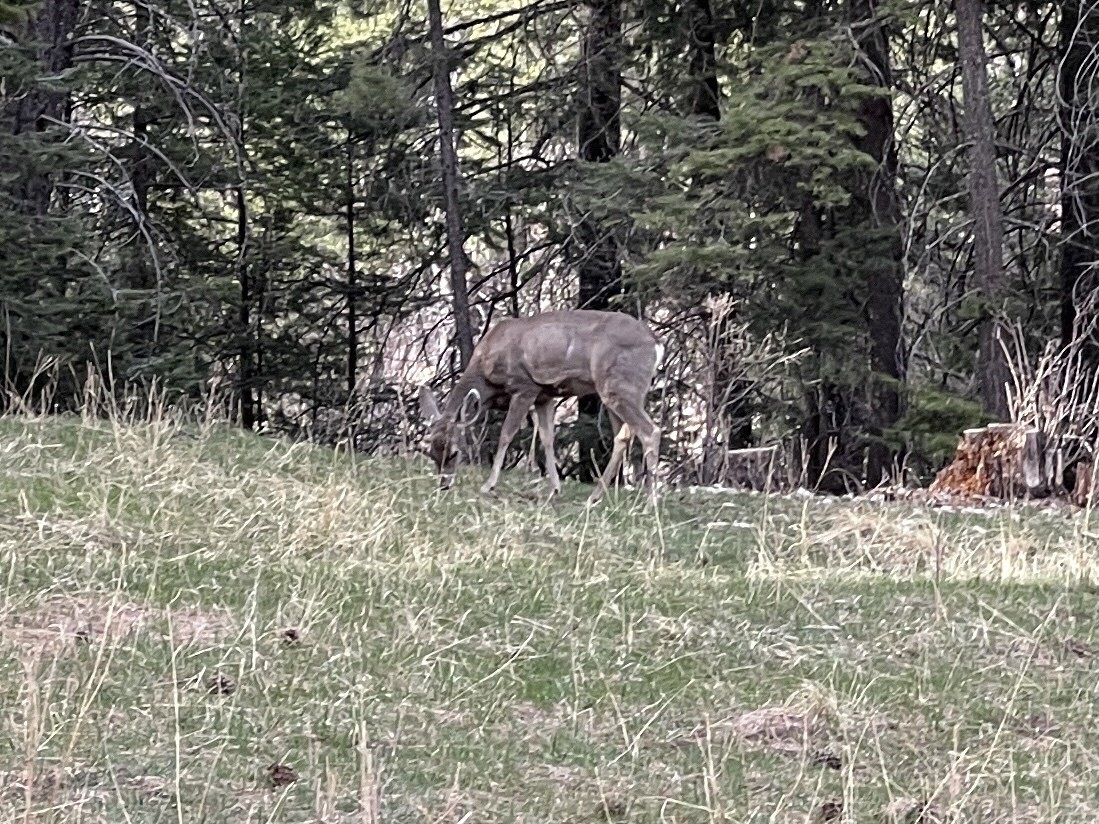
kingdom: Animalia
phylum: Chordata
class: Mammalia
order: Artiodactyla
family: Cervidae
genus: Odocoileus
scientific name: Odocoileus hemionus
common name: Mule deer
